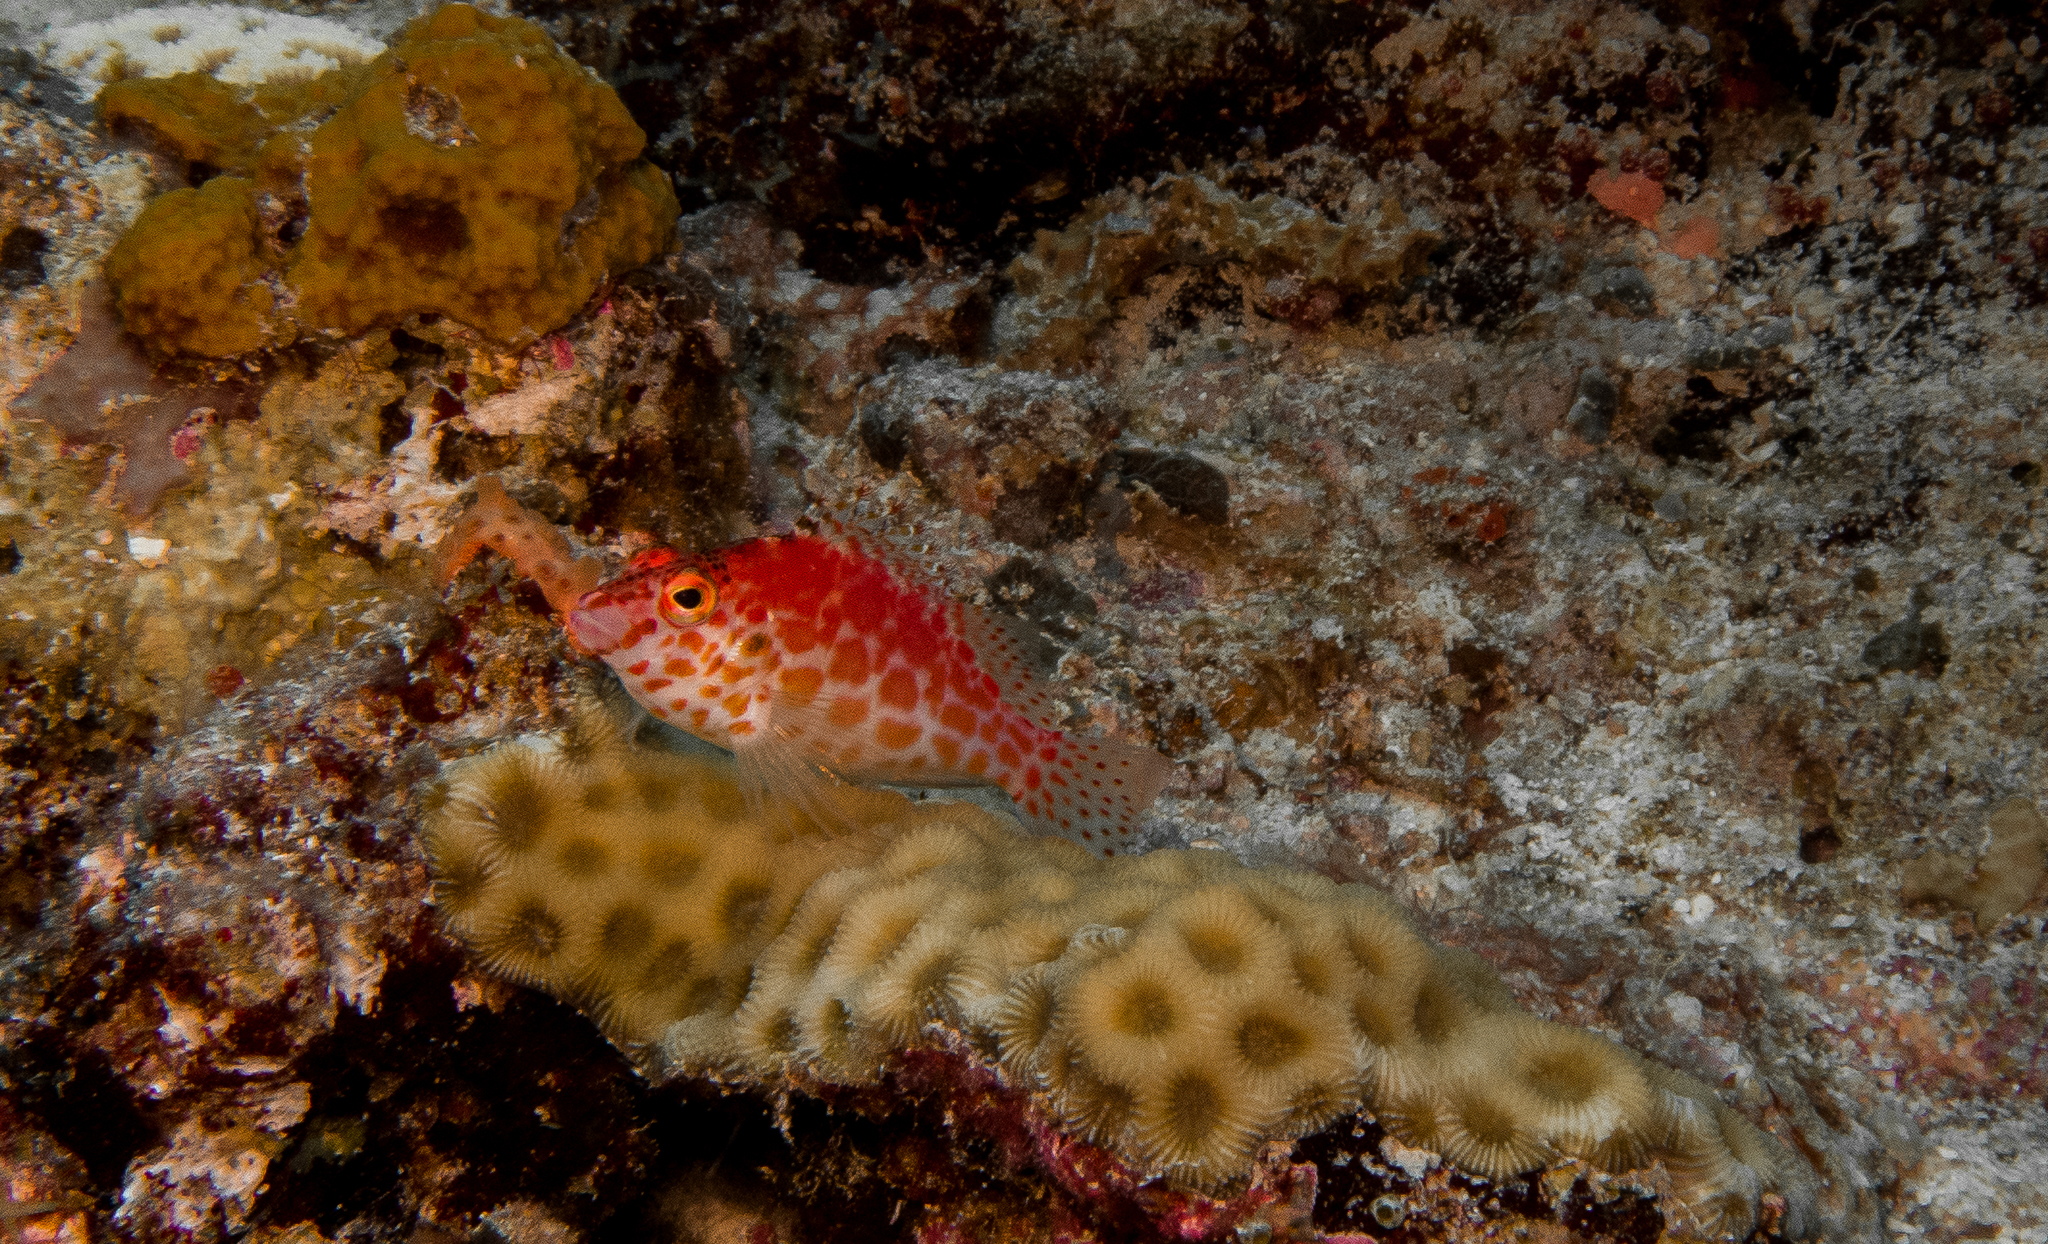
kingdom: Animalia
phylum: Chordata
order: Perciformes
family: Cirrhitidae
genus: Cirrhitichthys
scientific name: Cirrhitichthys oxycephalus
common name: Spotted hawkfish
